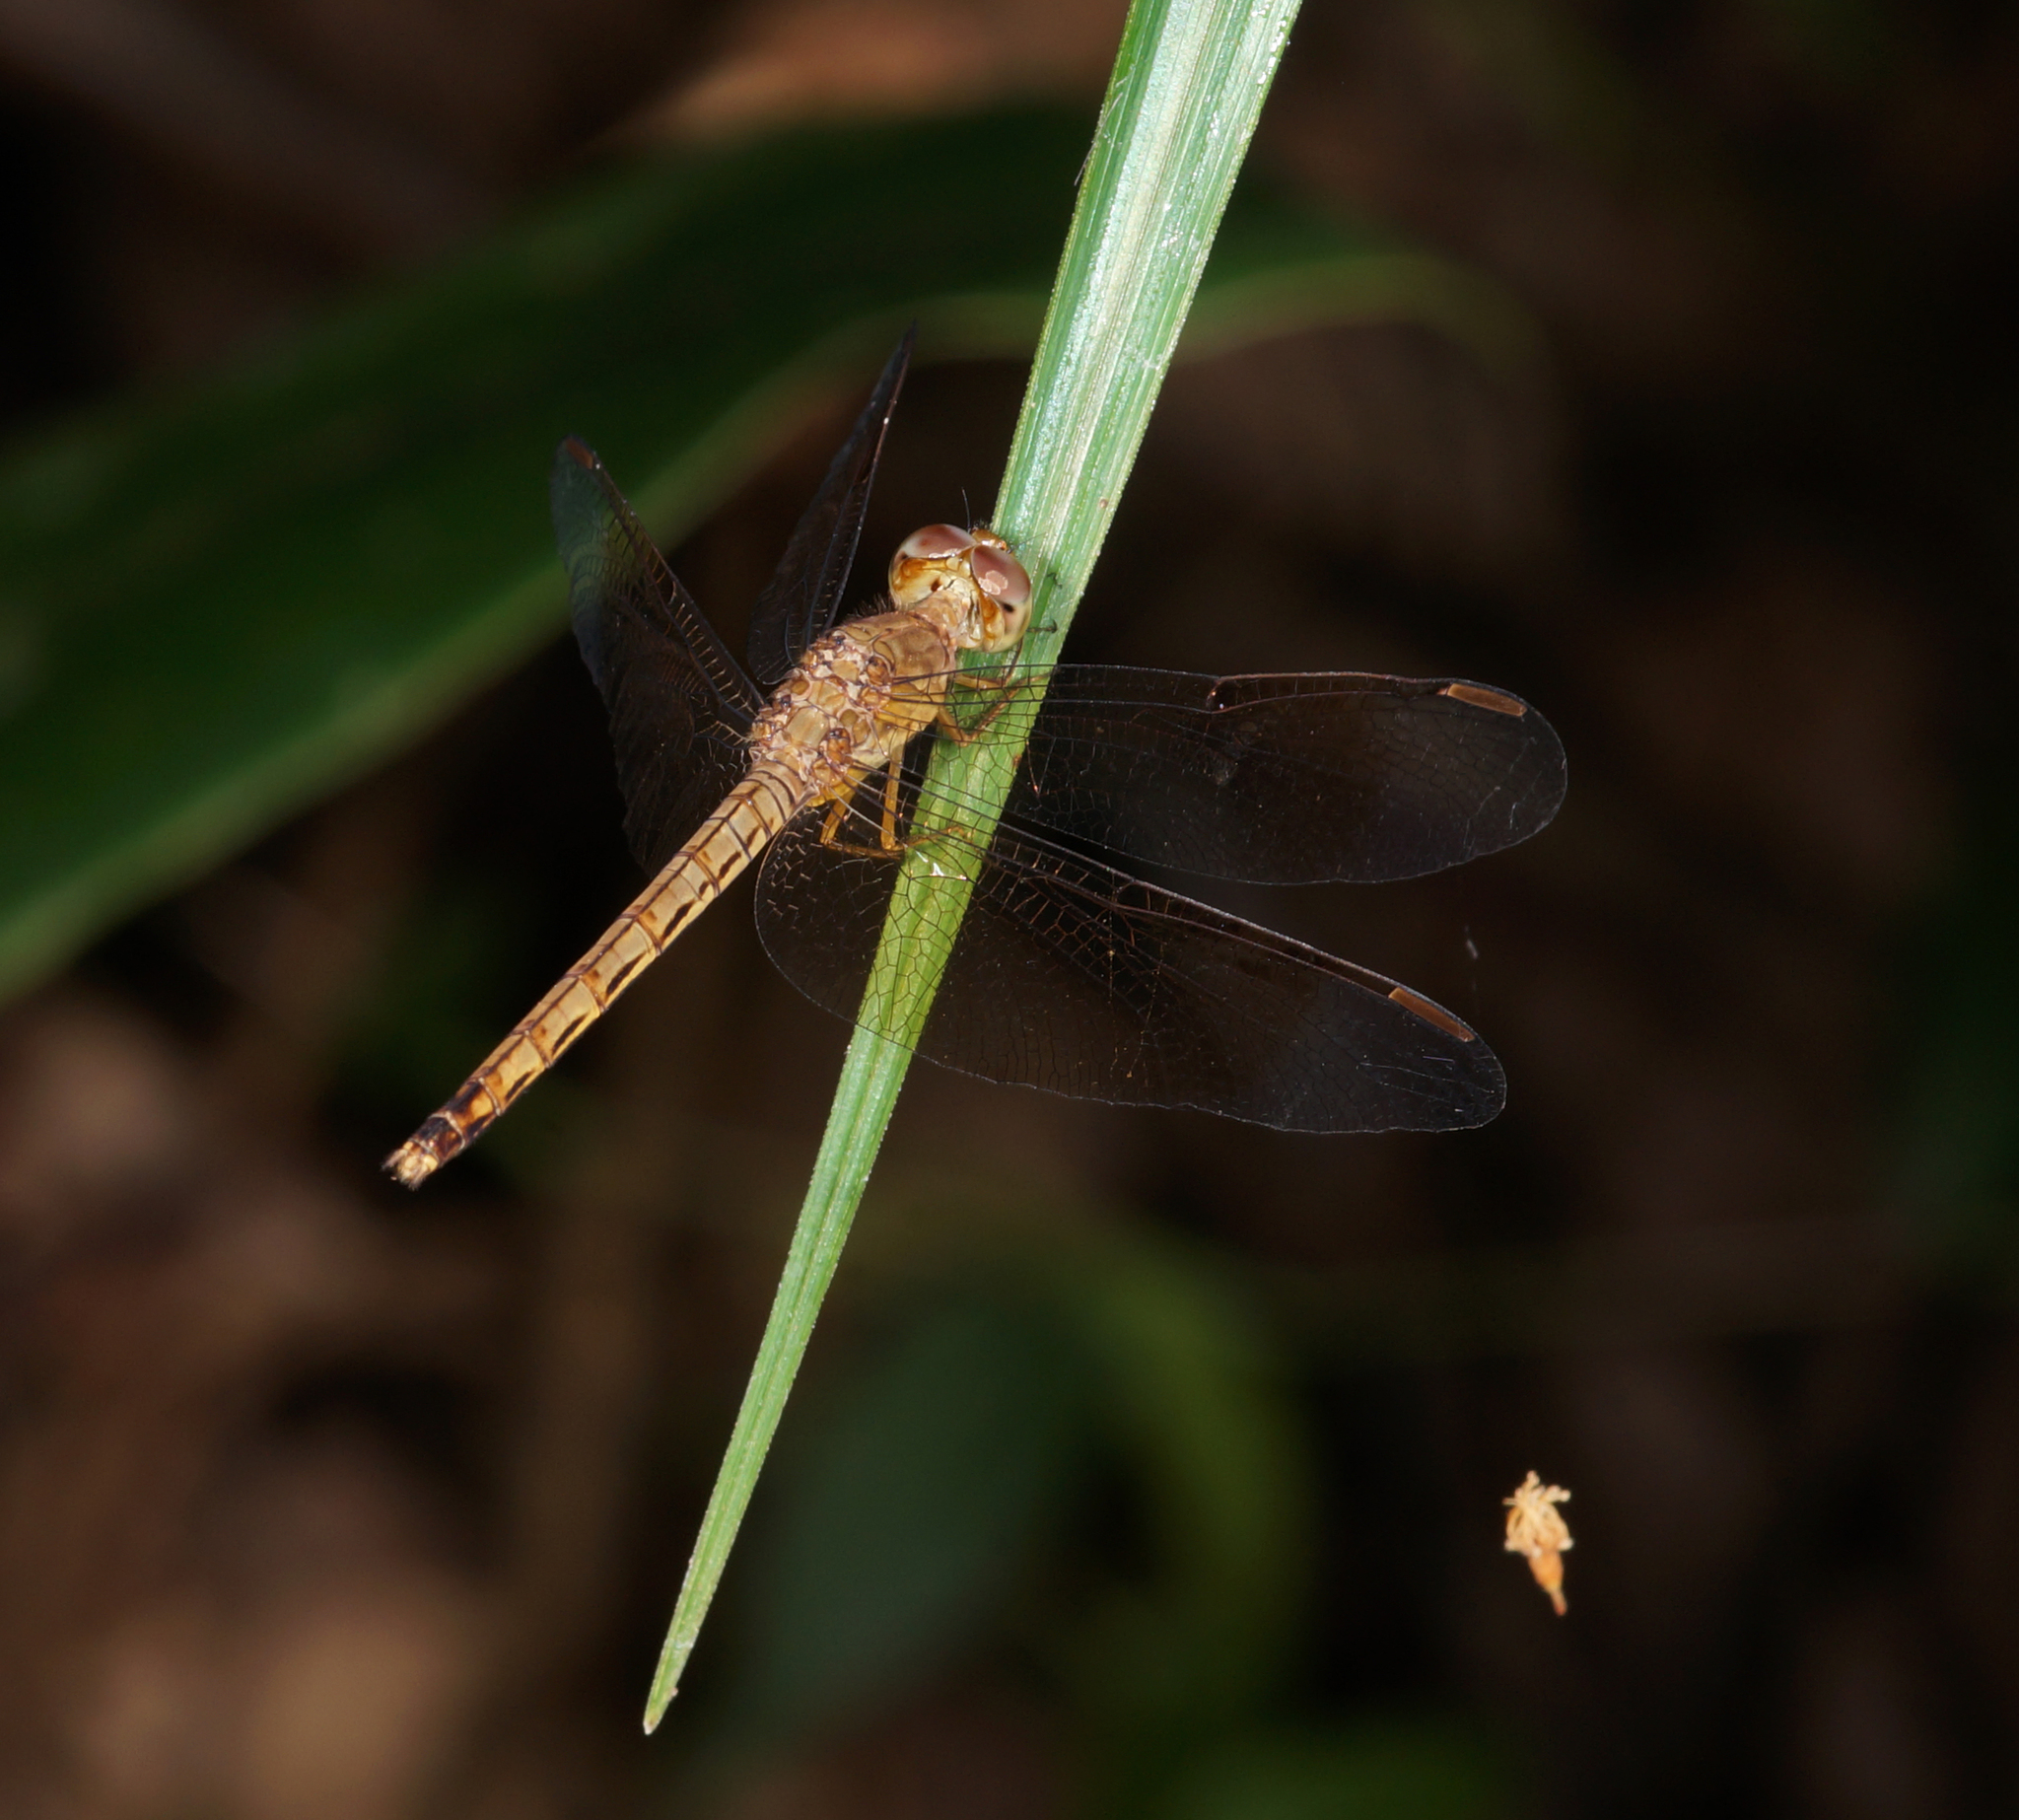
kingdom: Animalia
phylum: Arthropoda
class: Insecta
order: Odonata
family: Libellulidae
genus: Neurothemis
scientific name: Neurothemis fluctuans
